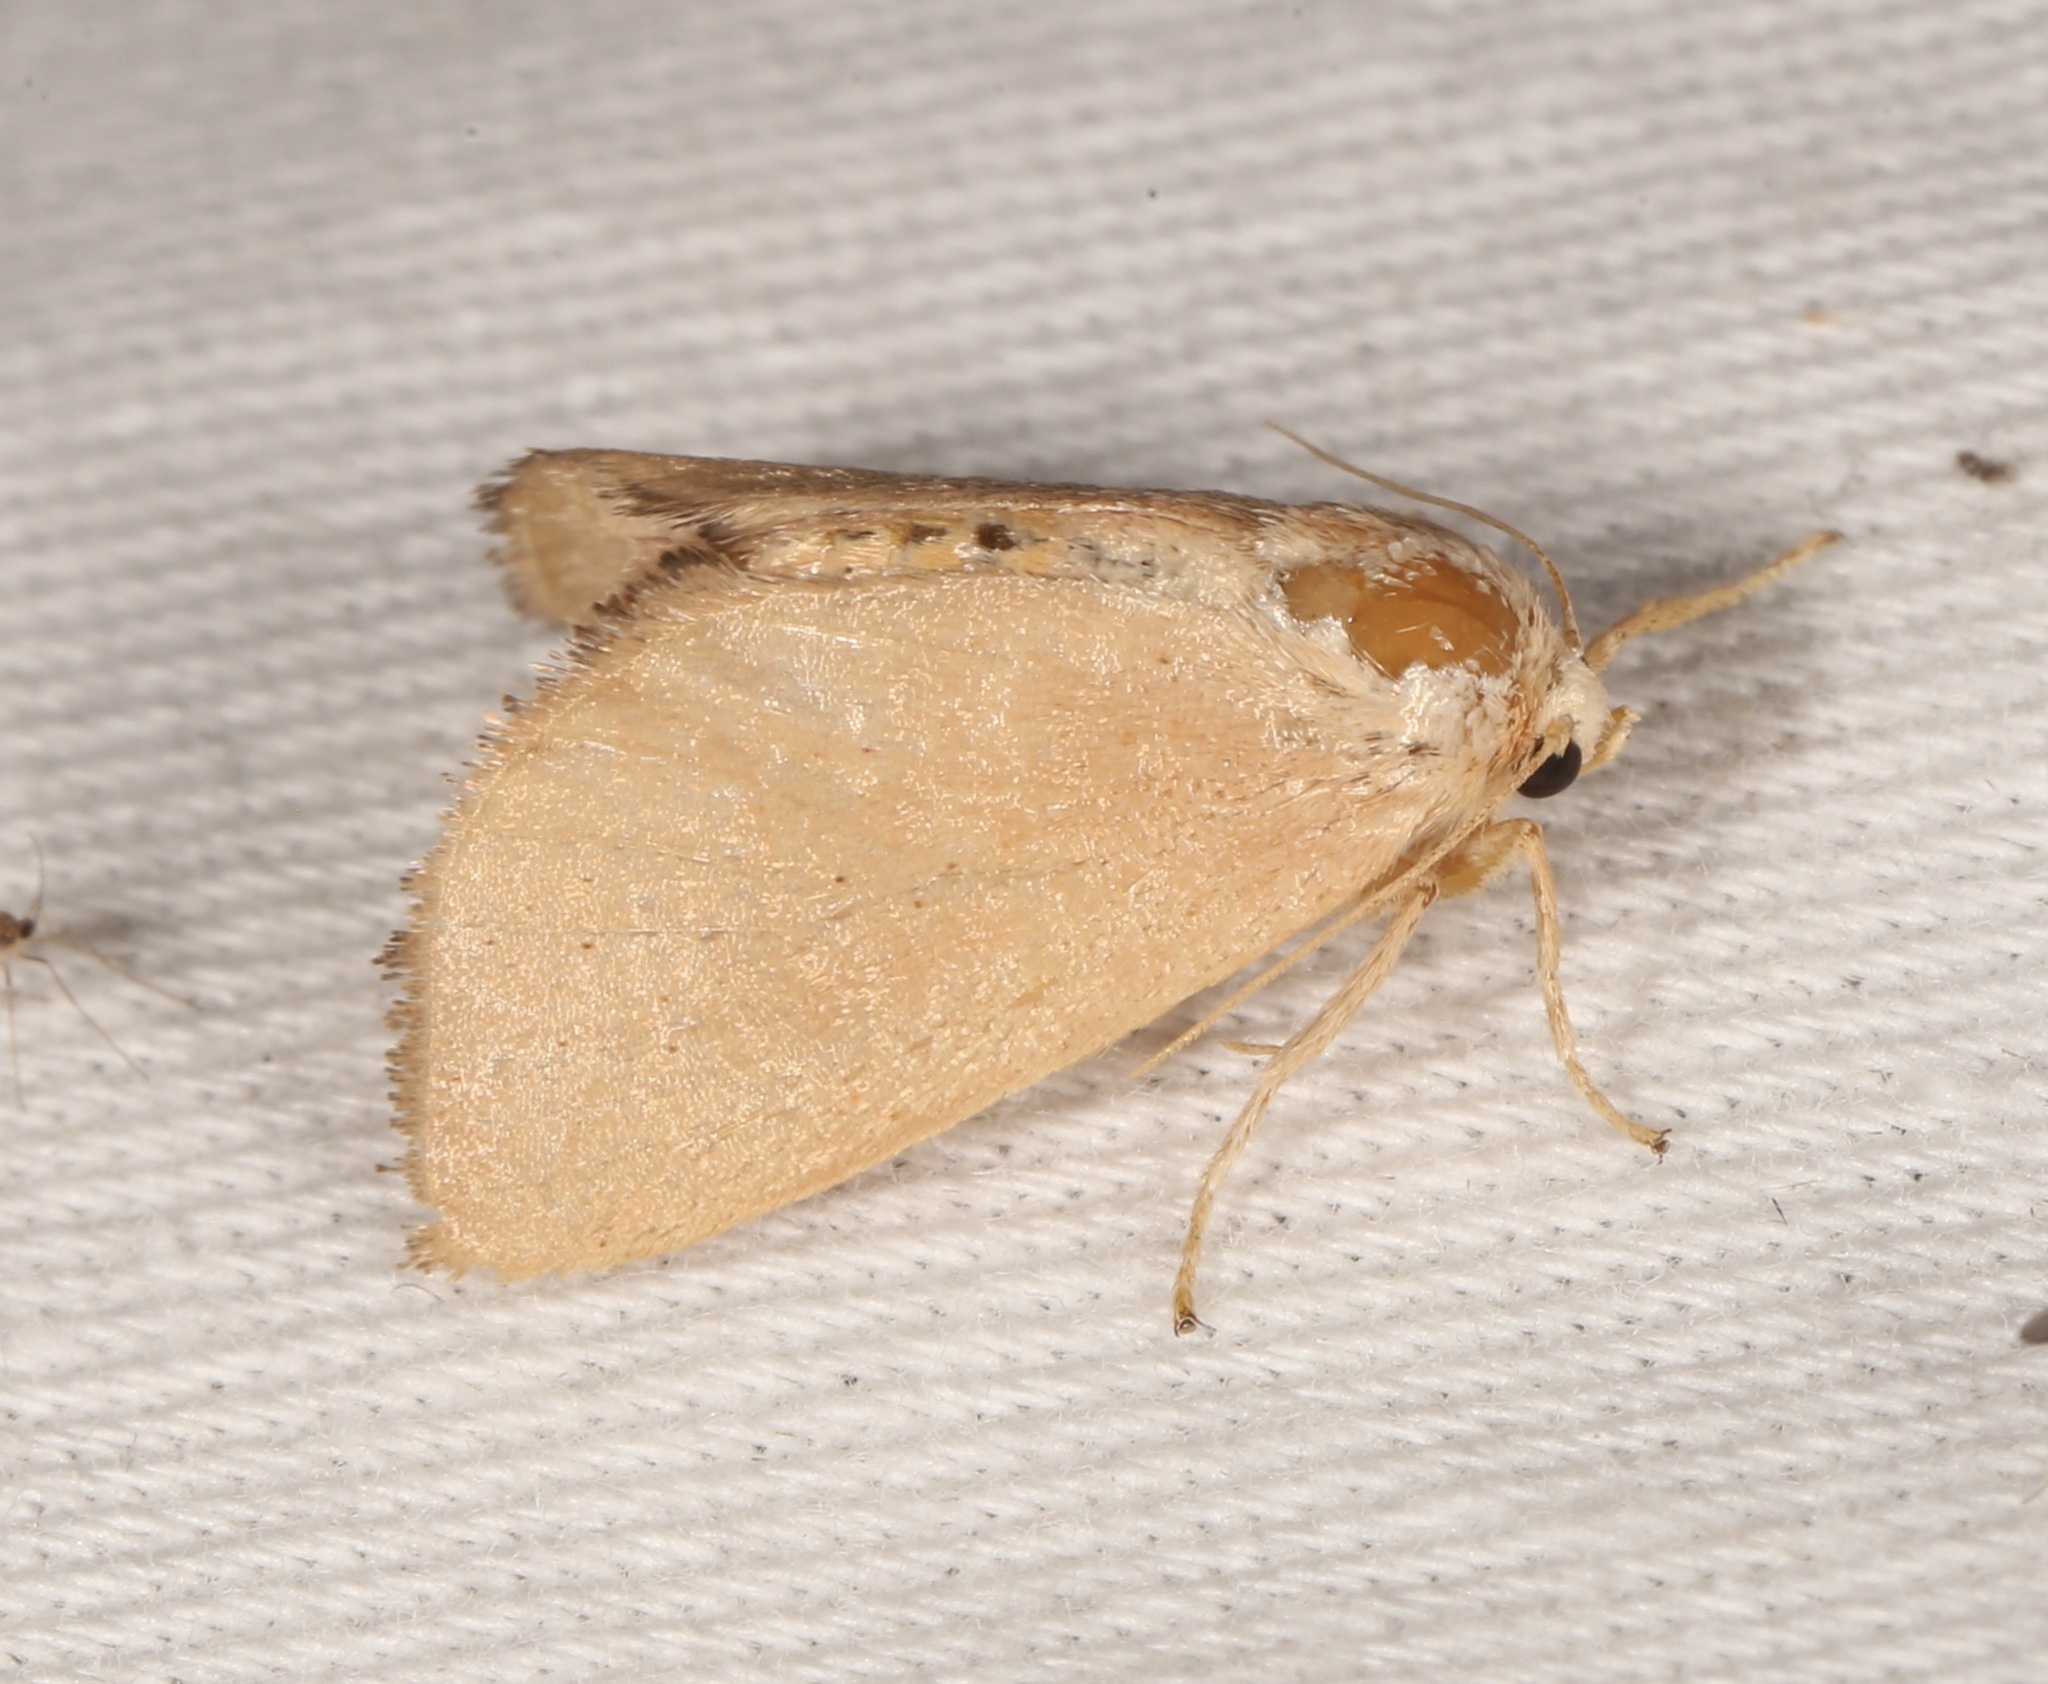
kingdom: Animalia
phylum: Arthropoda
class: Insecta
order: Lepidoptera
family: Limacodidae
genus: Isa
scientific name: Isa schaefferana
